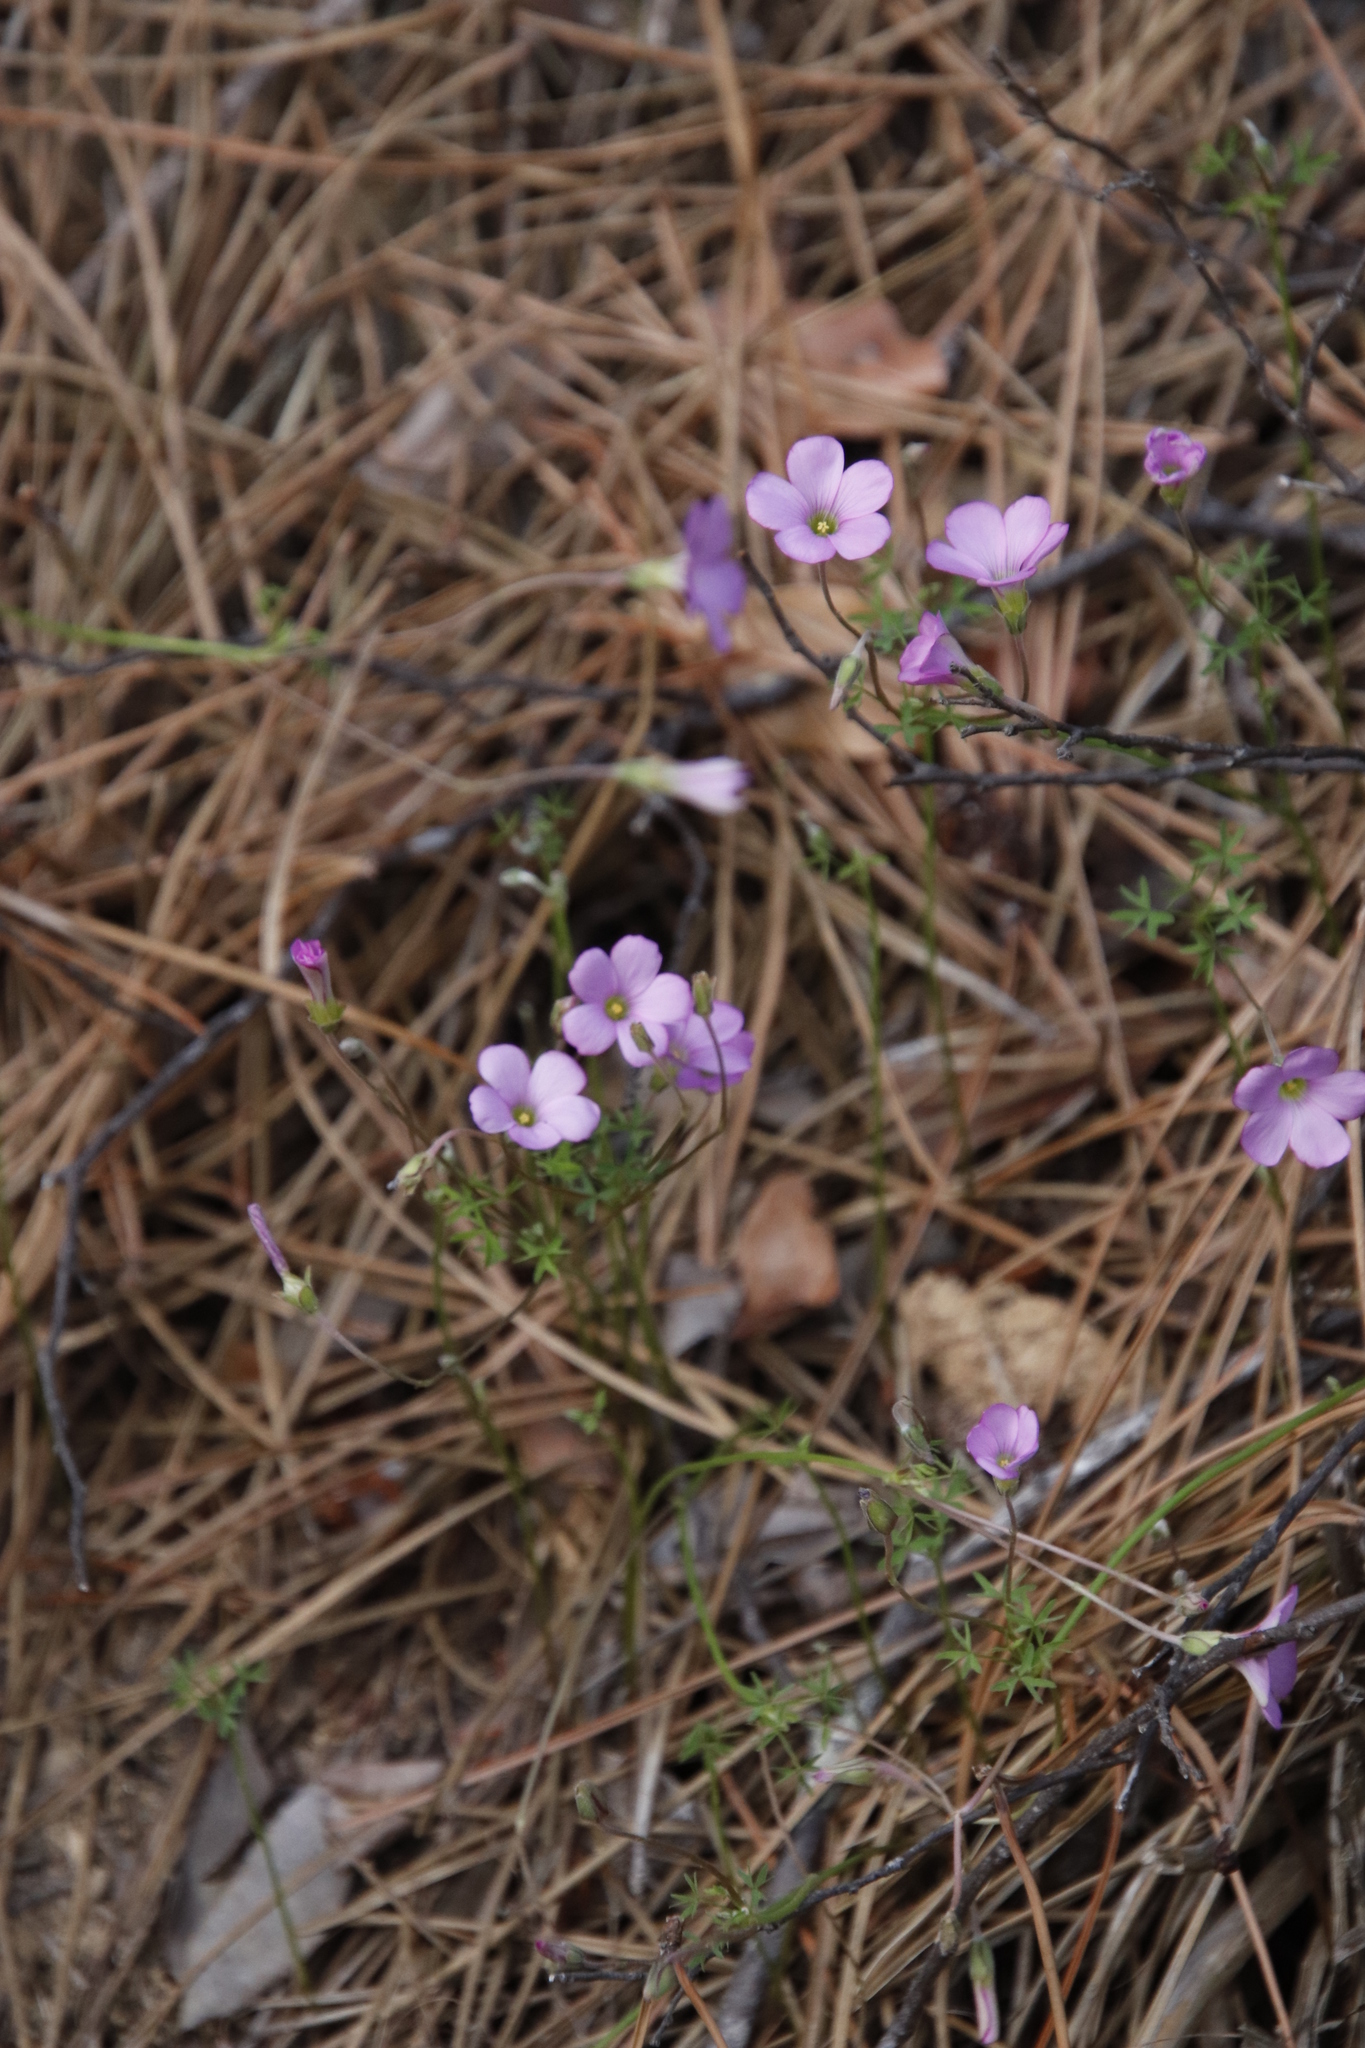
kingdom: Plantae
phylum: Tracheophyta
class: Magnoliopsida
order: Oxalidales
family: Oxalidaceae
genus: Oxalis
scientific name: Oxalis bifida
